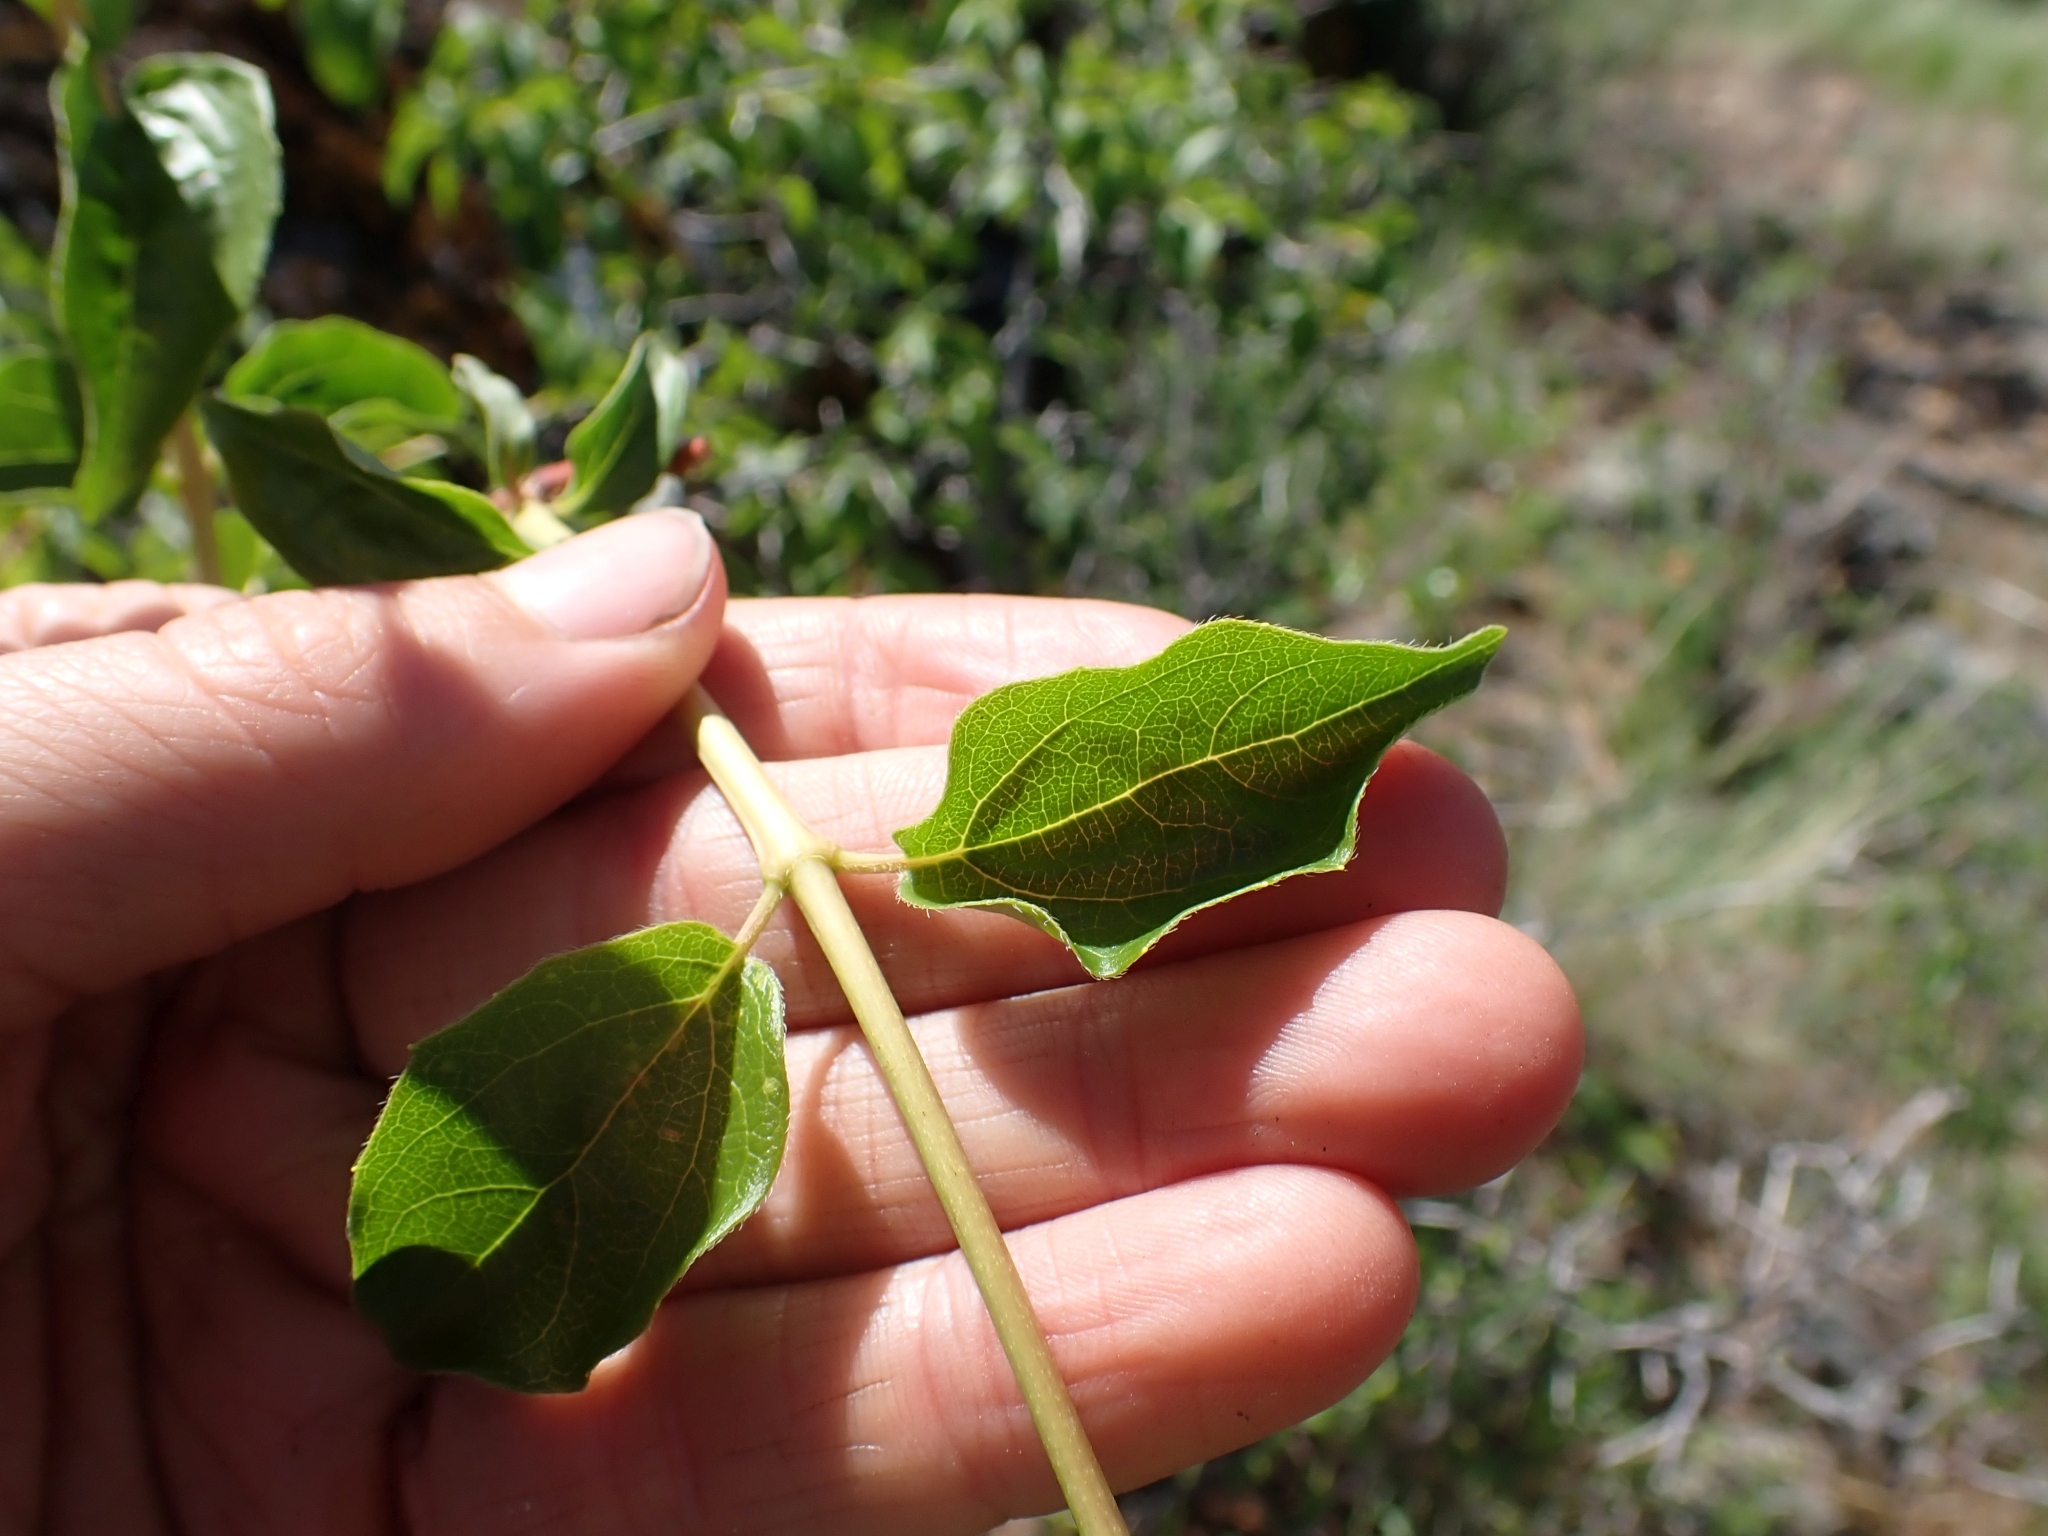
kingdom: Plantae
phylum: Tracheophyta
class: Magnoliopsida
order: Cornales
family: Hydrangeaceae
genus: Philadelphus
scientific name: Philadelphus lewisii
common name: Lewis's mock orange
